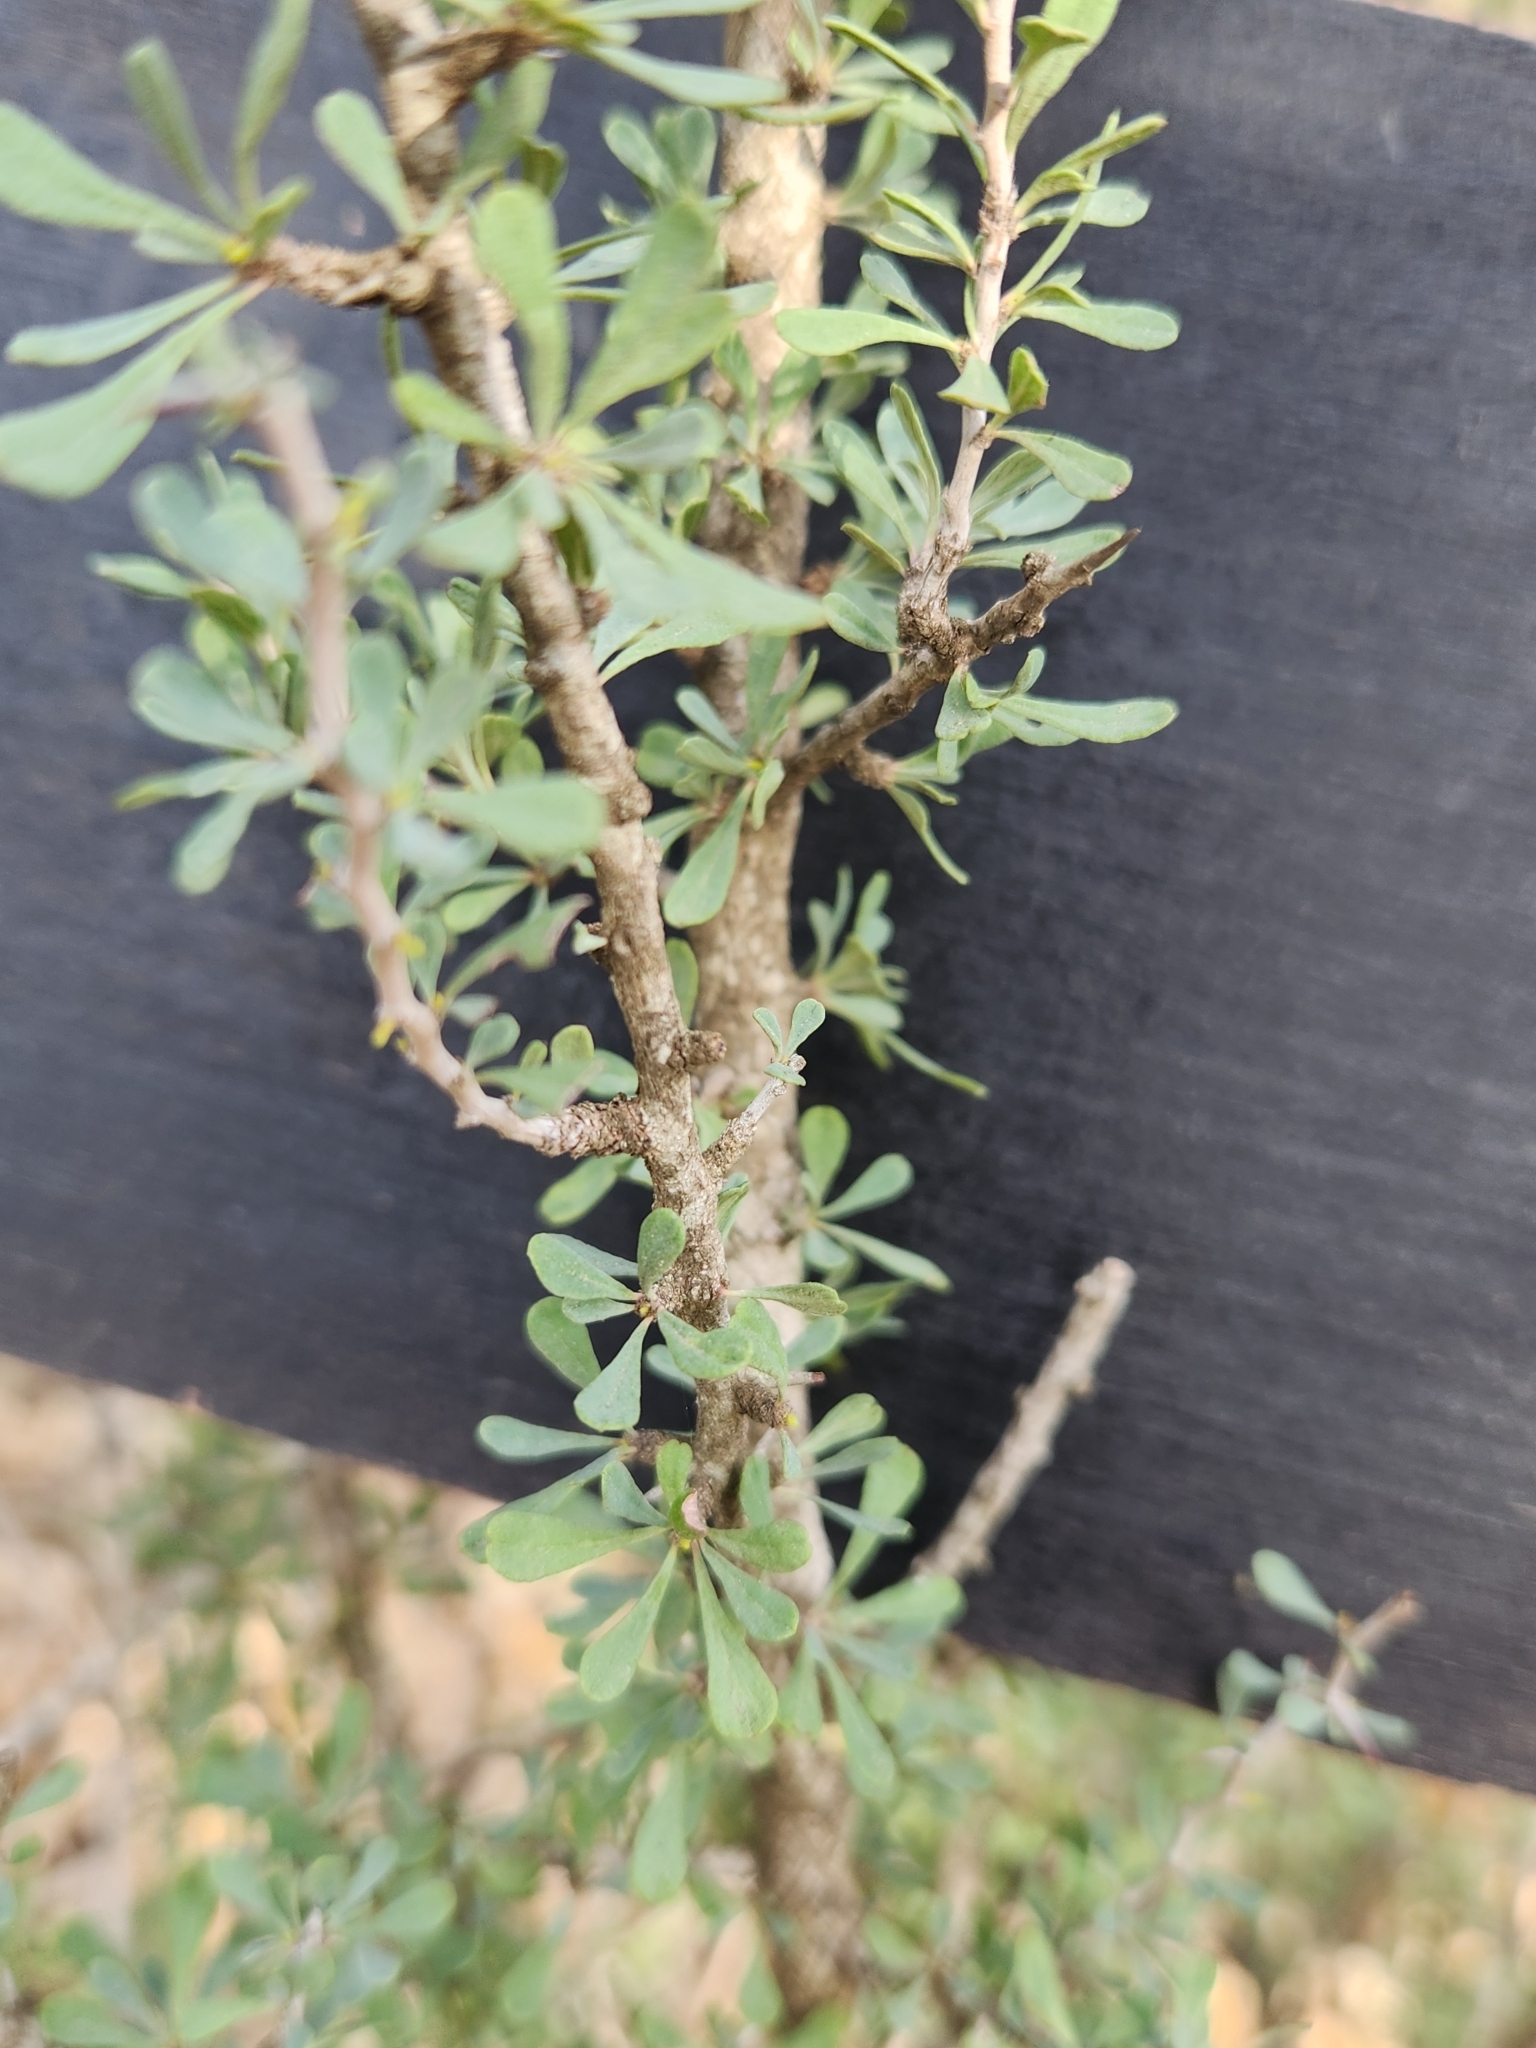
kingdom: Plantae
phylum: Tracheophyta
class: Magnoliopsida
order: Rosales
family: Rhamnaceae
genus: Condalia
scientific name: Condalia spathulata
